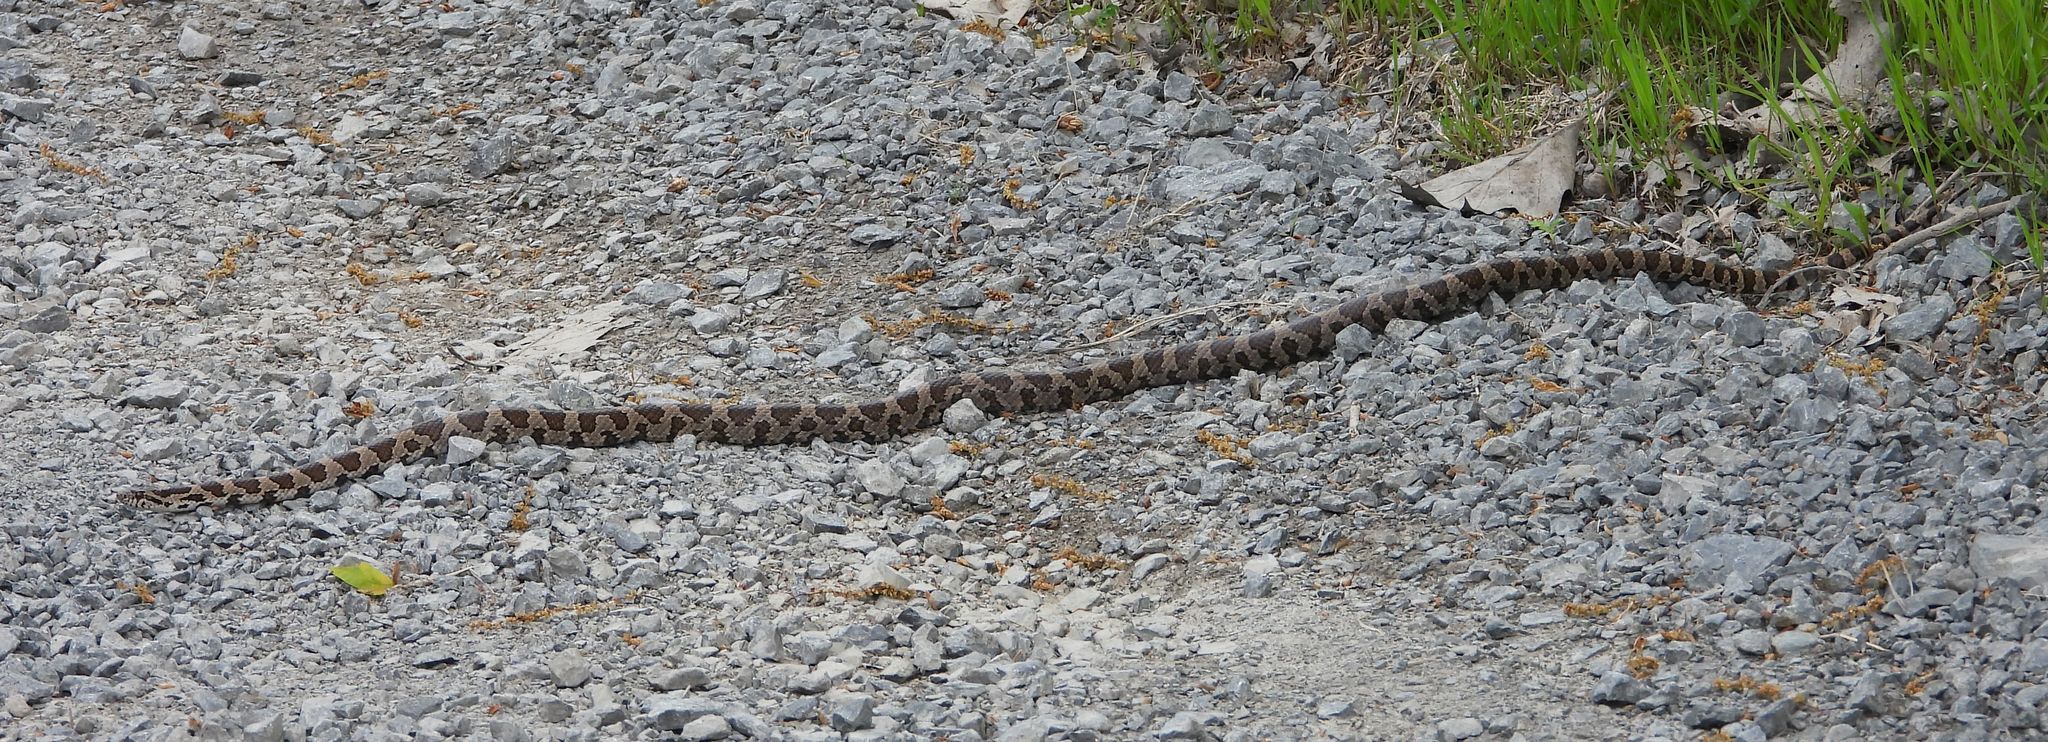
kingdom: Animalia
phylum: Chordata
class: Squamata
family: Colubridae
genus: Lampropeltis
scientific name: Lampropeltis triangulum
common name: Eastern milksnake
